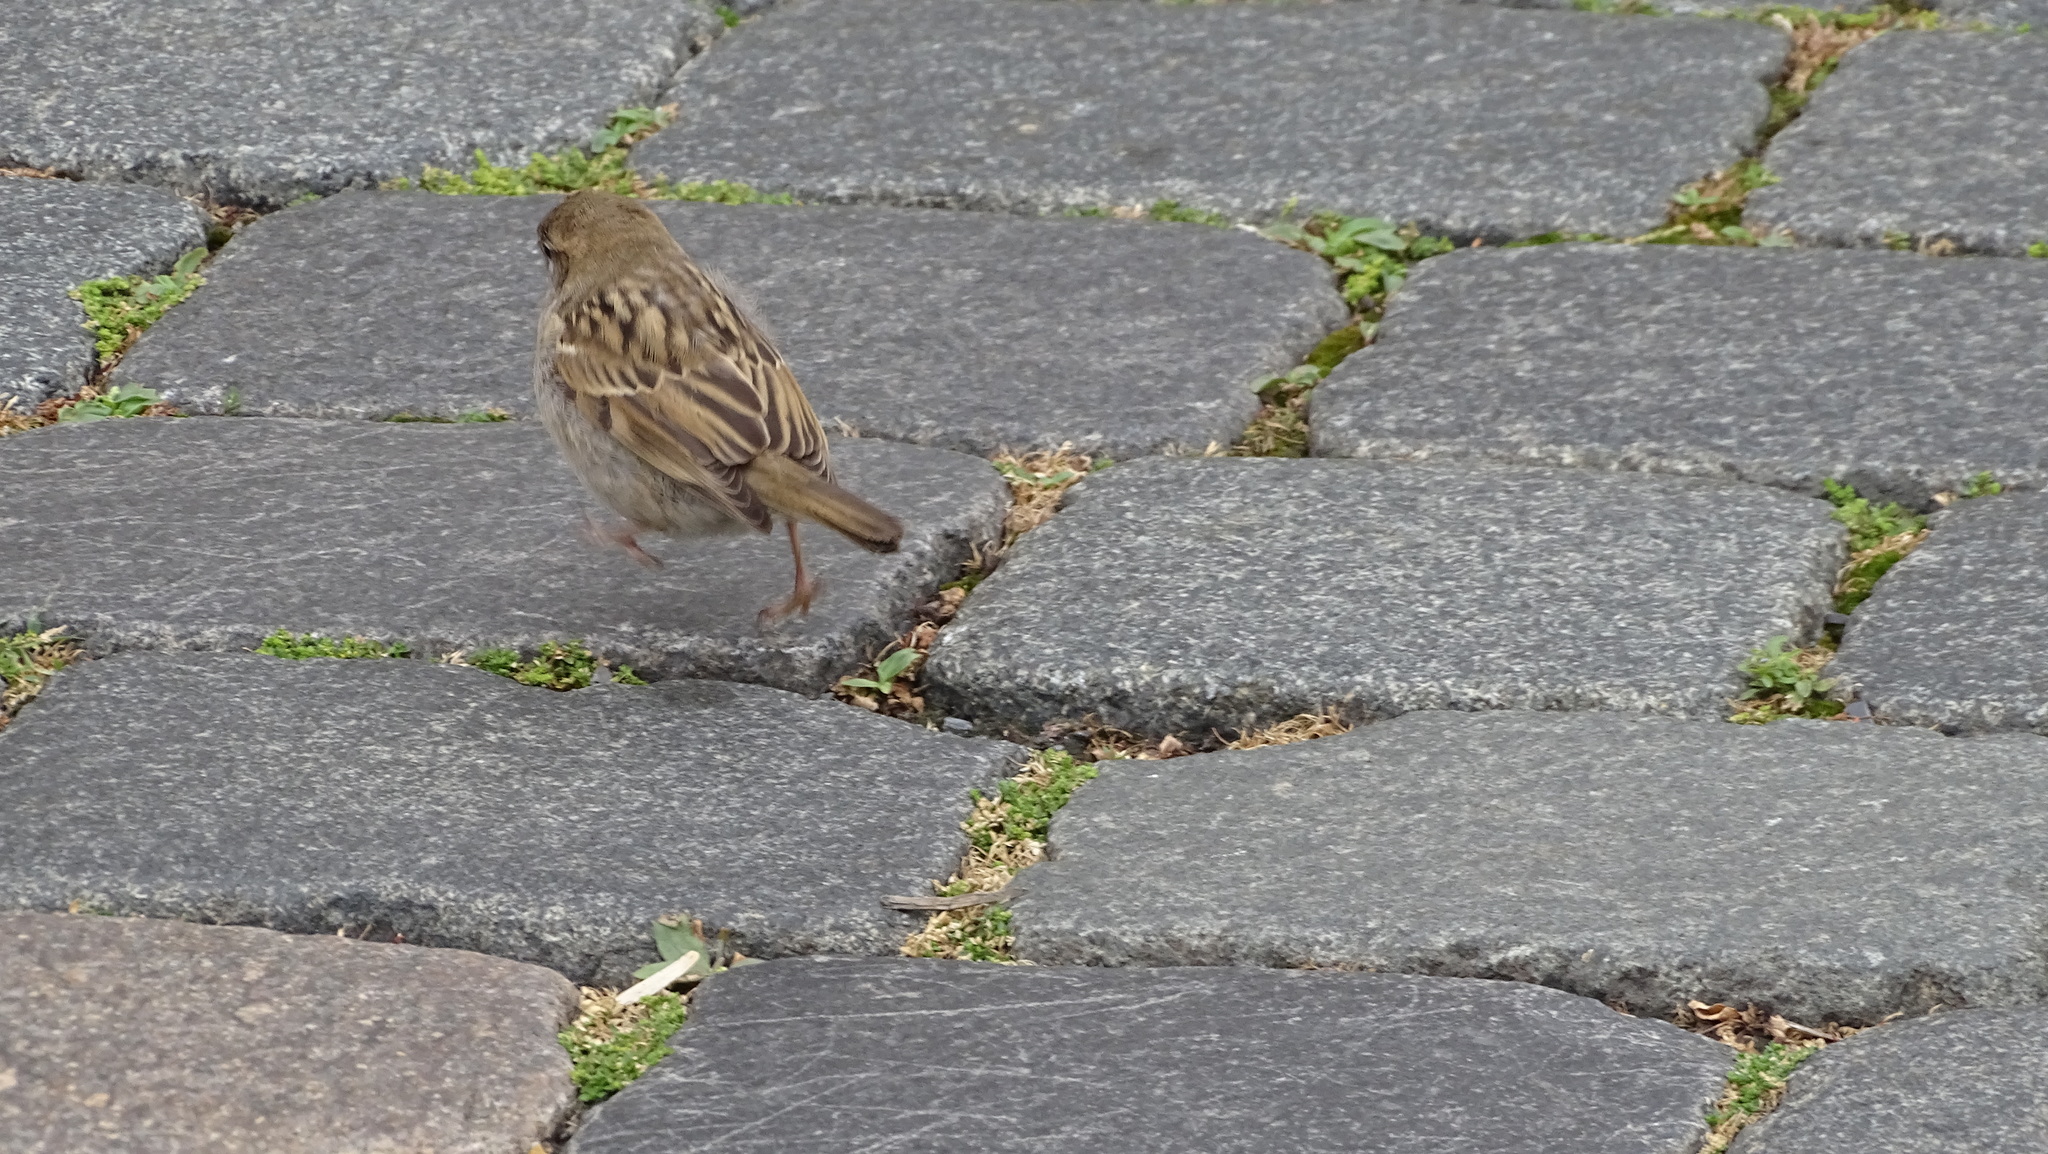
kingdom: Animalia
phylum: Chordata
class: Aves
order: Passeriformes
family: Passeridae
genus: Passer
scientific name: Passer domesticus
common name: House sparrow
